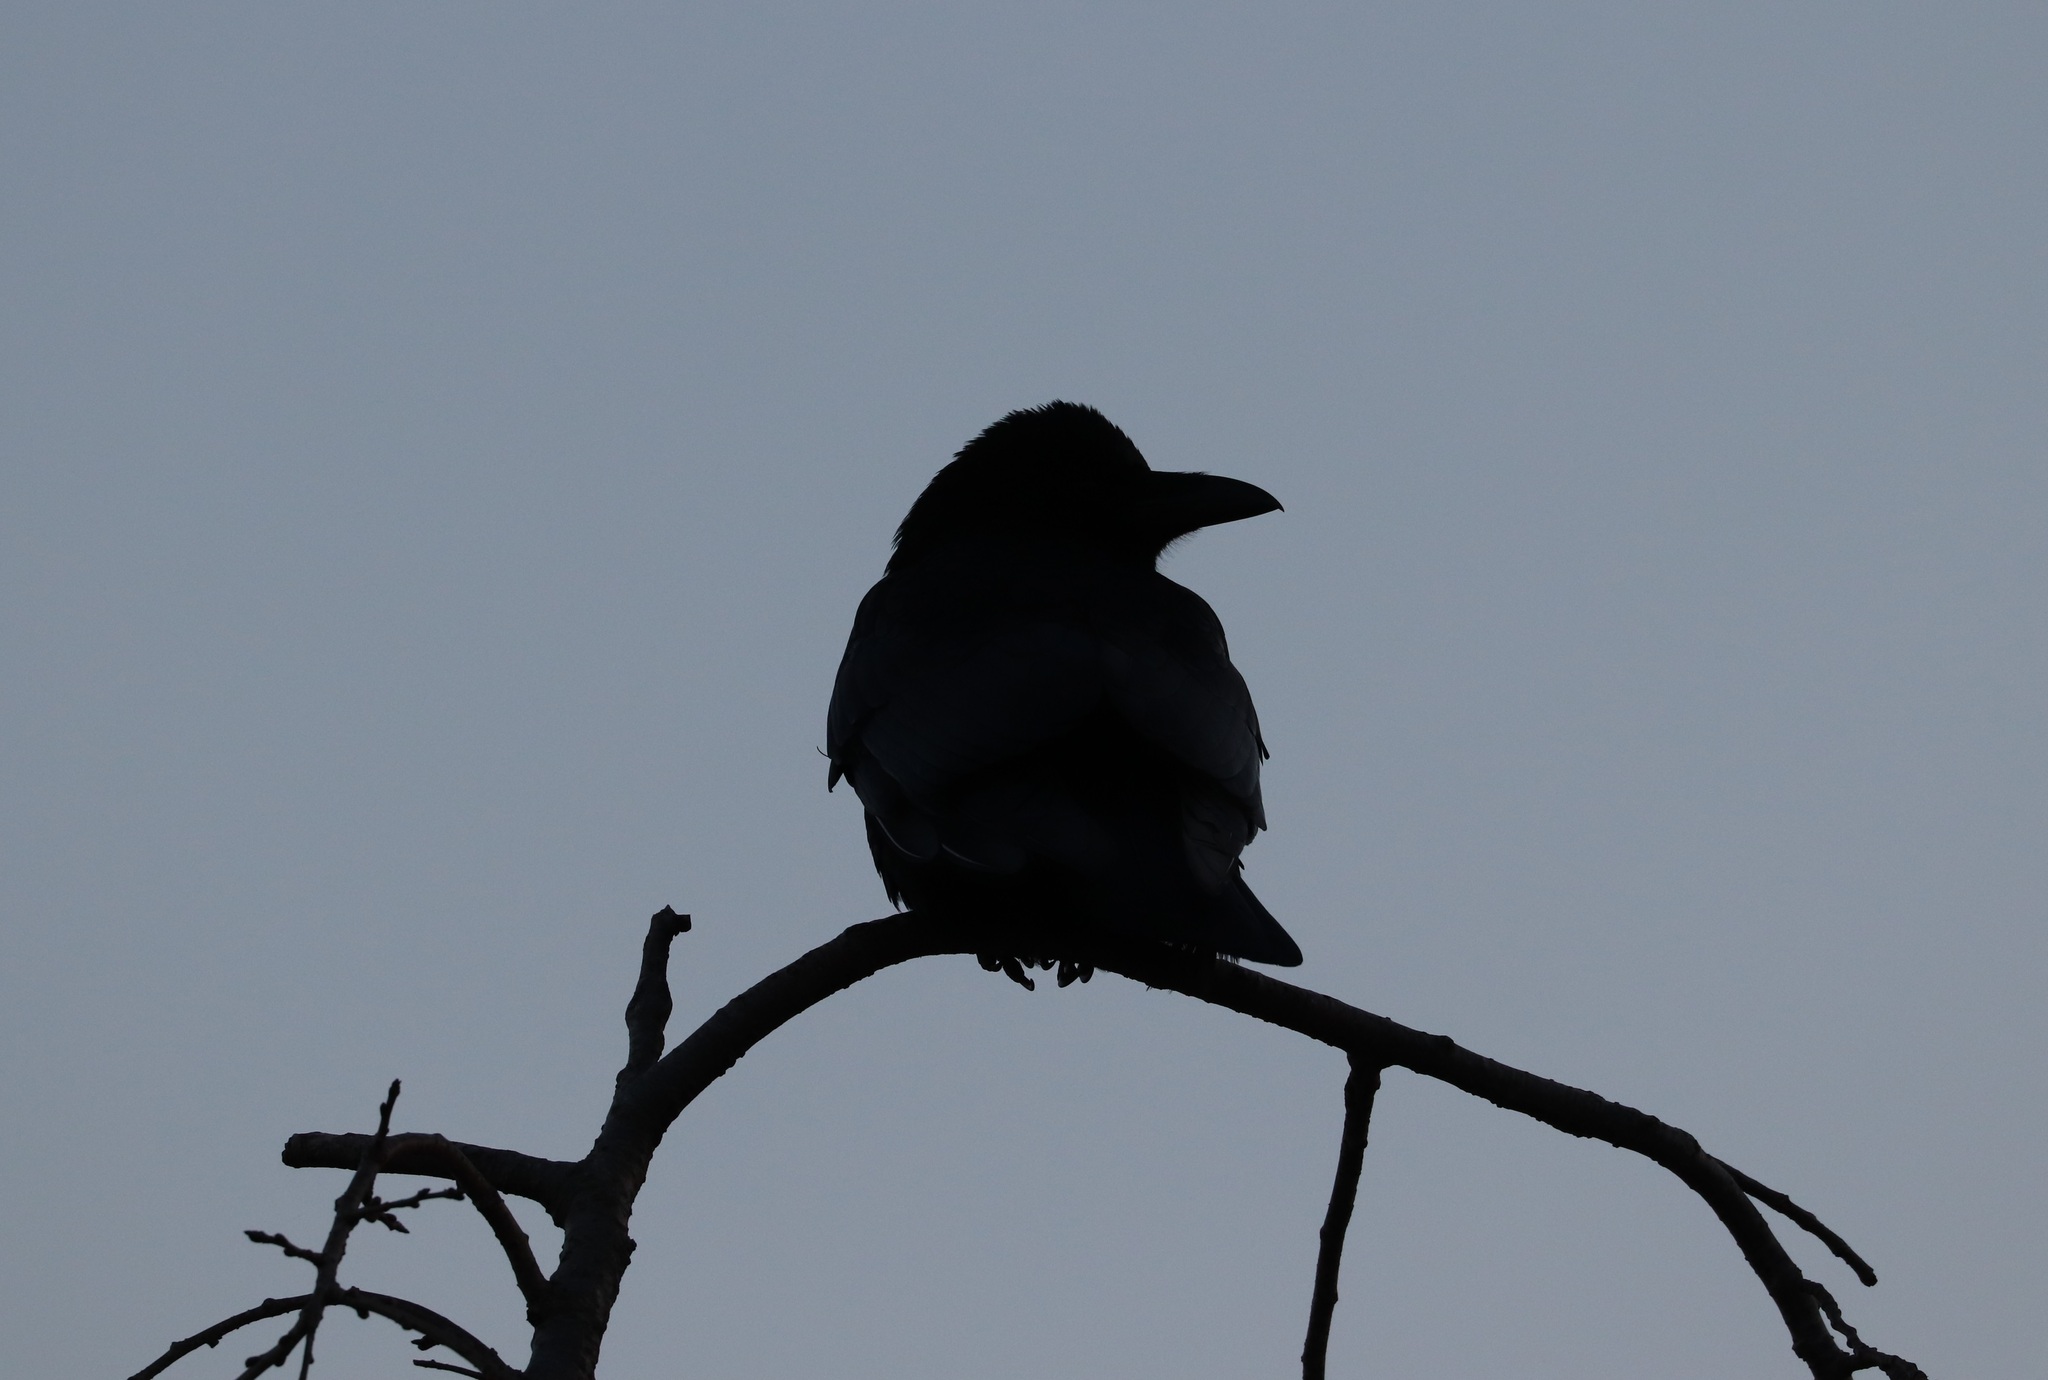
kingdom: Animalia
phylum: Chordata
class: Aves
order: Passeriformes
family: Corvidae
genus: Corvus
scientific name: Corvus macrorhynchos
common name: Large-billed crow
